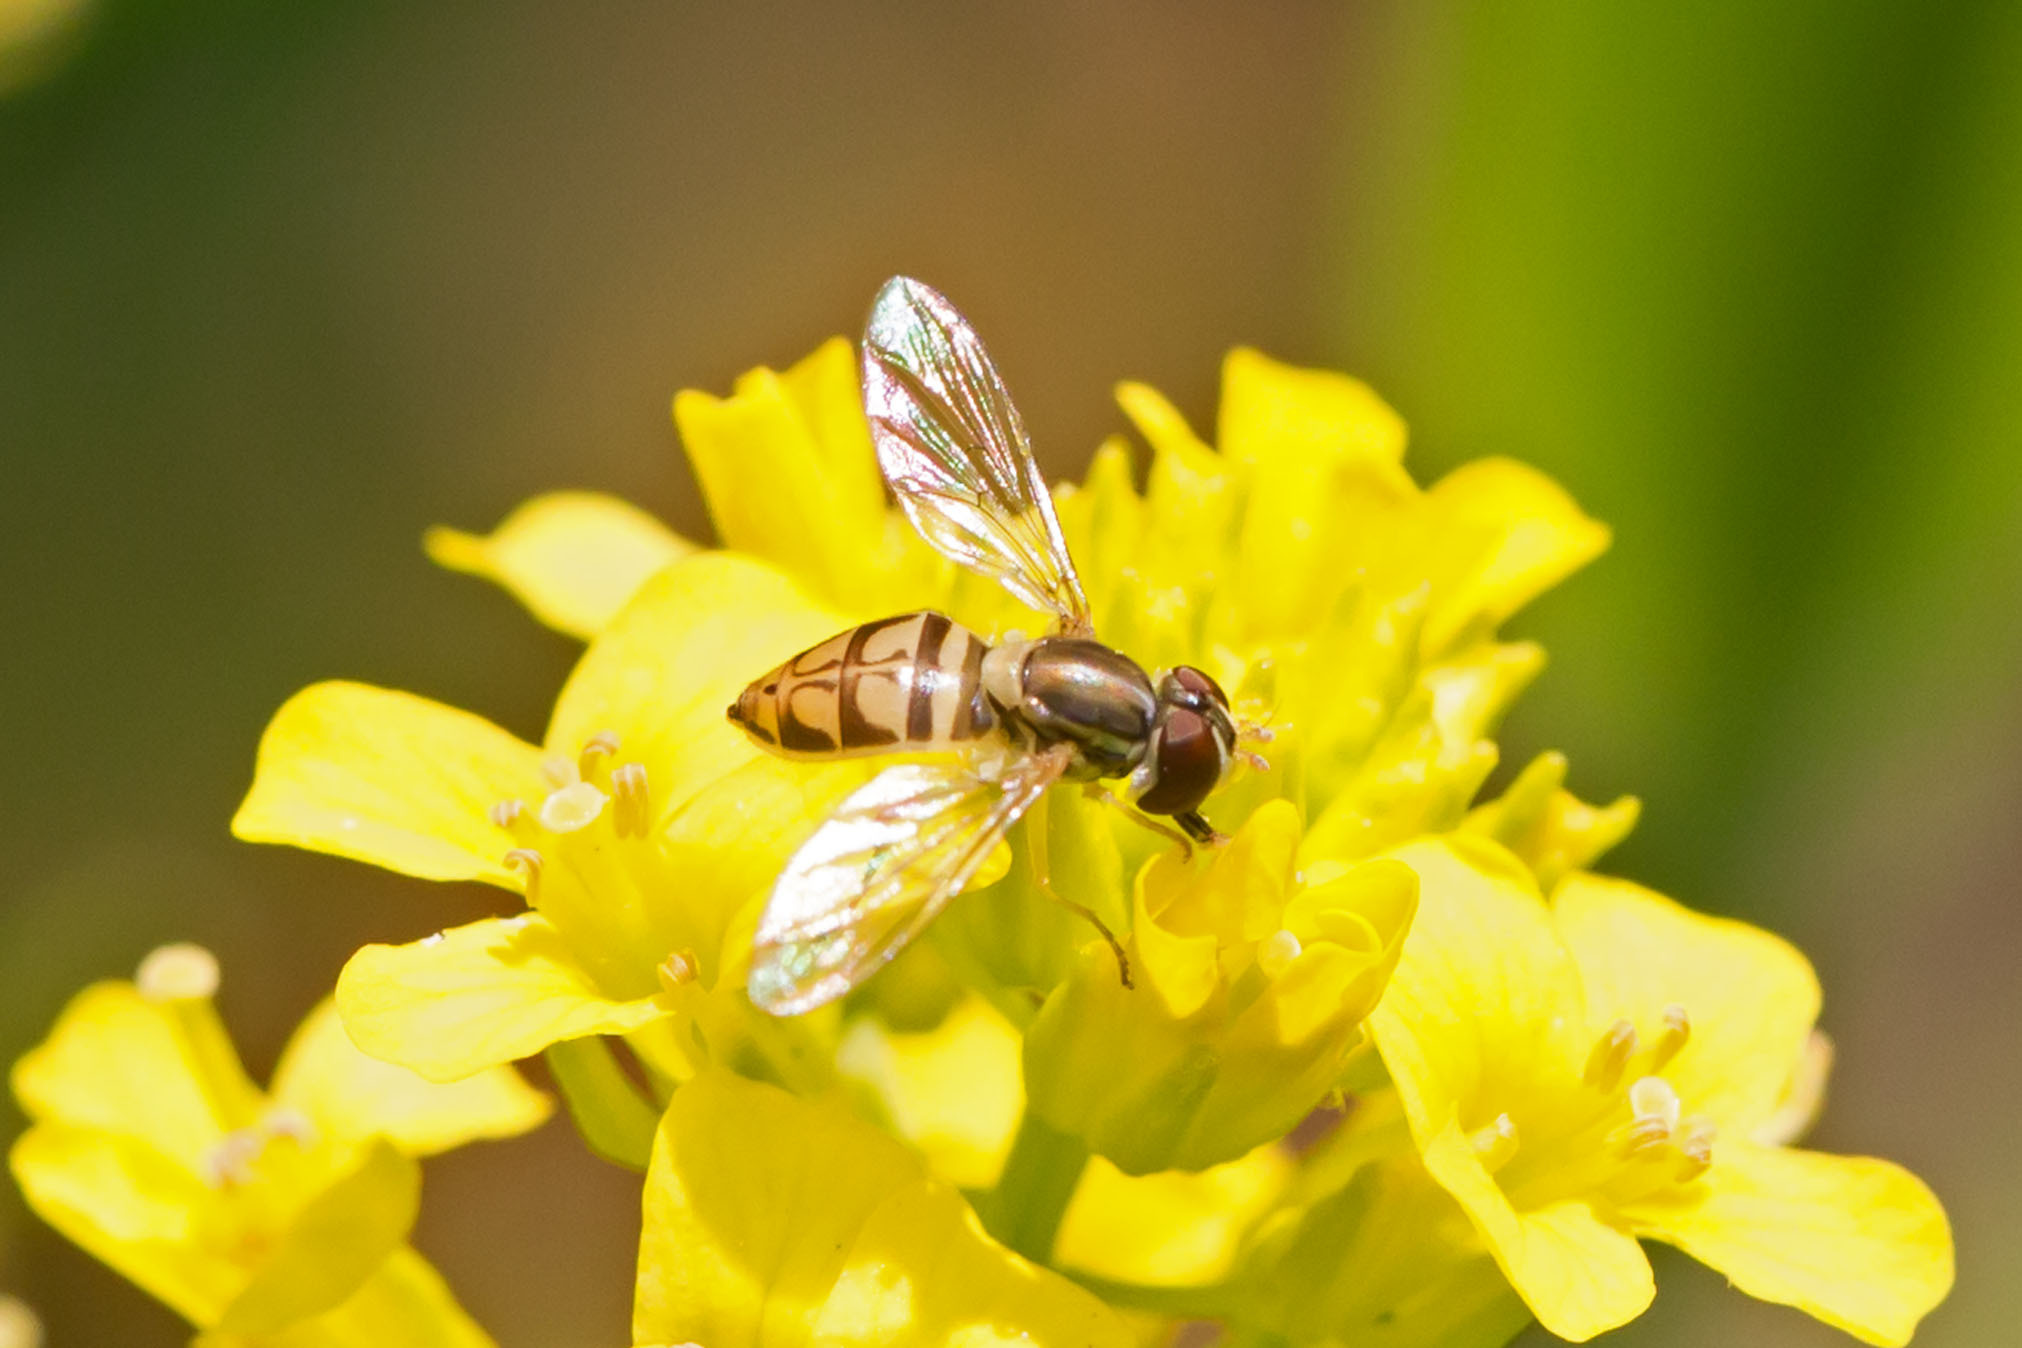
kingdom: Animalia
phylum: Arthropoda
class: Insecta
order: Diptera
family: Syrphidae
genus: Toxomerus
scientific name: Toxomerus marginatus
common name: Syrphid fly
